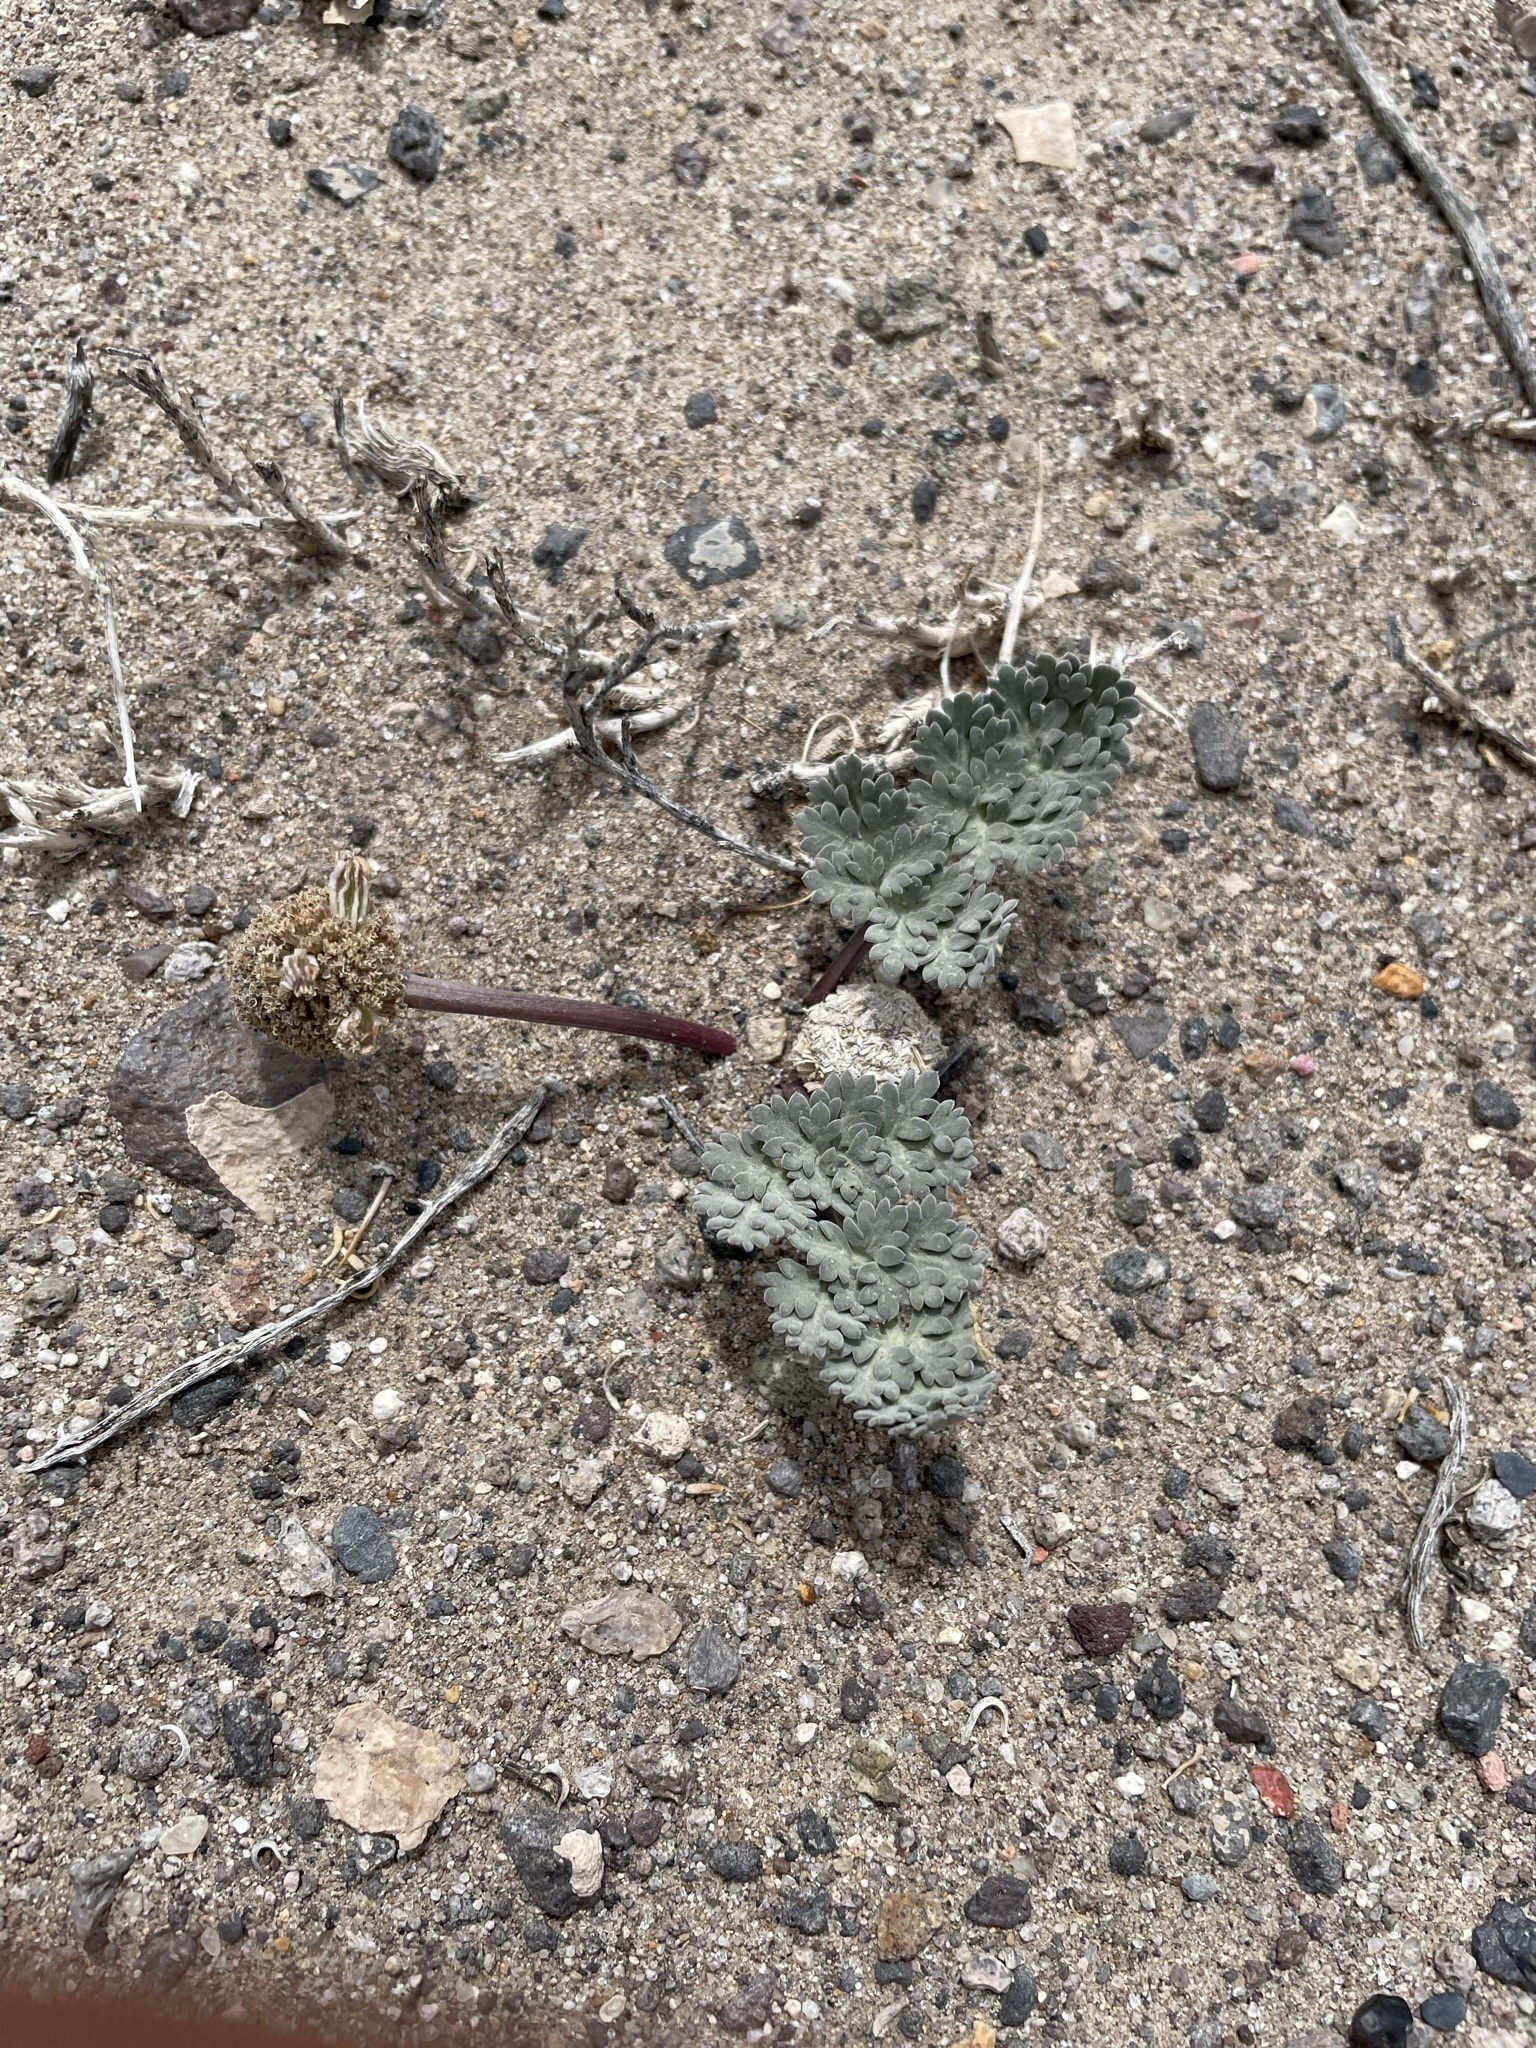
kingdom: Plantae
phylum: Tracheophyta
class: Magnoliopsida
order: Apiales
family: Apiaceae
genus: Cymopterus
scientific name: Cymopterus globosus
